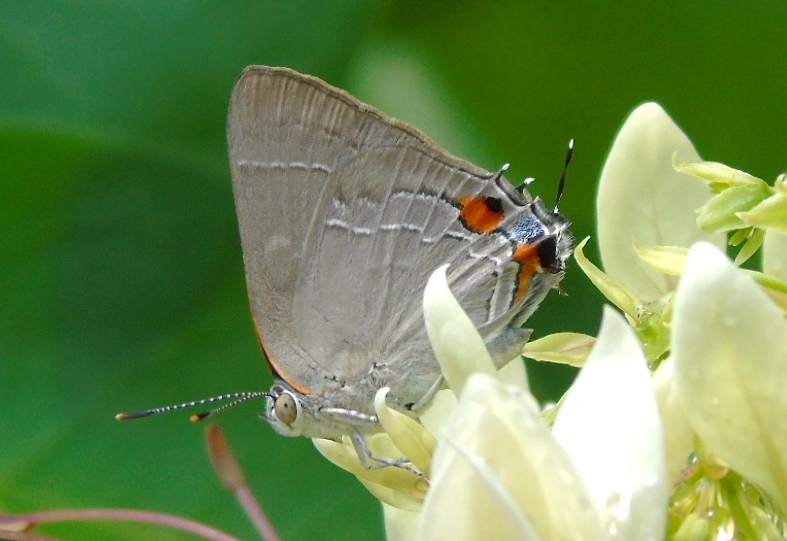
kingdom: Animalia
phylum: Arthropoda
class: Insecta
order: Lepidoptera
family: Lycaenidae
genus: Rekoa
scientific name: Rekoa
